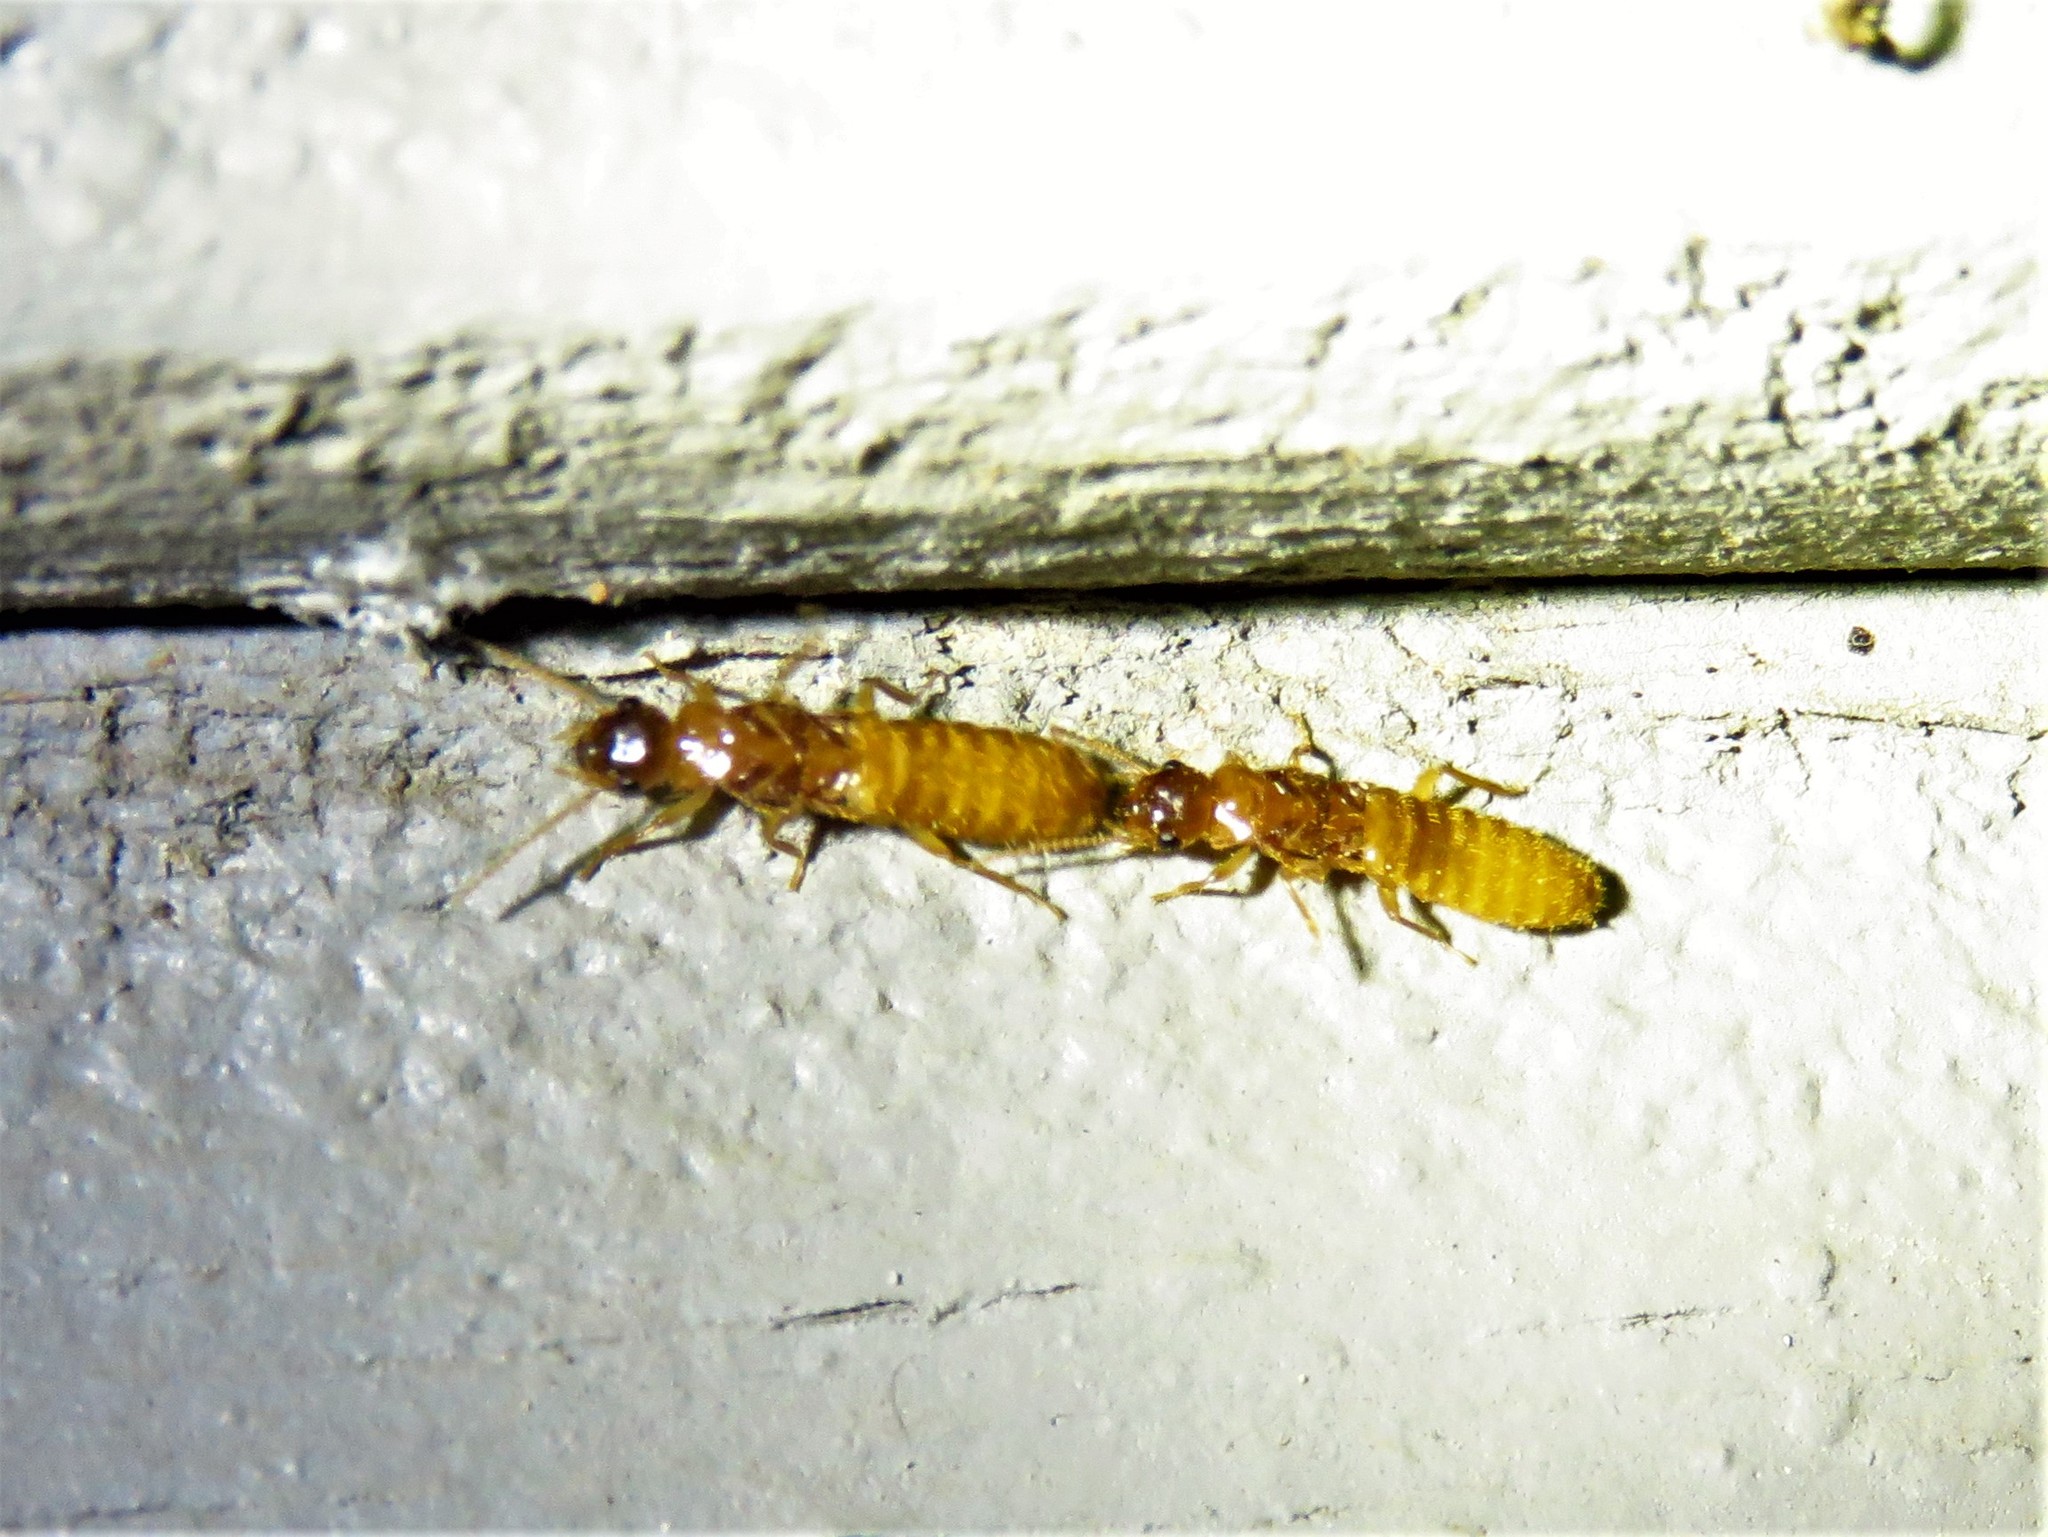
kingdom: Animalia
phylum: Arthropoda
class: Insecta
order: Blattodea
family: Rhinotermitidae
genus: Coptotermes
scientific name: Coptotermes formosanus
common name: Formosan termite
